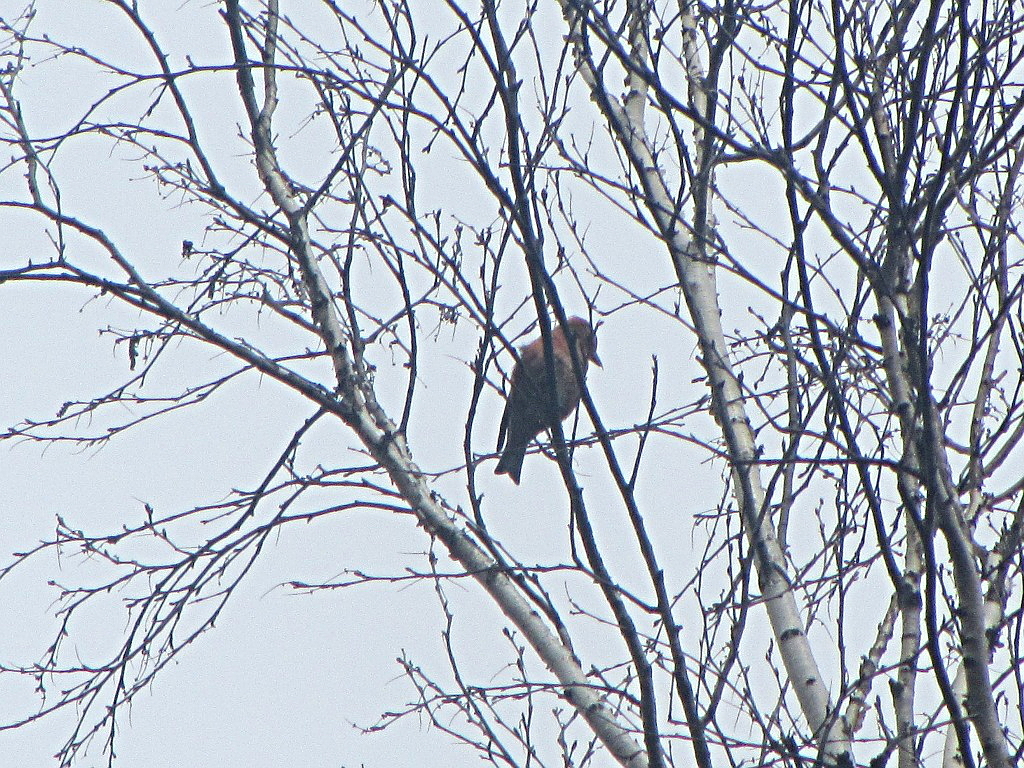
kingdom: Animalia
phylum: Chordata
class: Aves
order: Passeriformes
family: Fringillidae
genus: Loxia
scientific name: Loxia curvirostra
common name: Red crossbill
